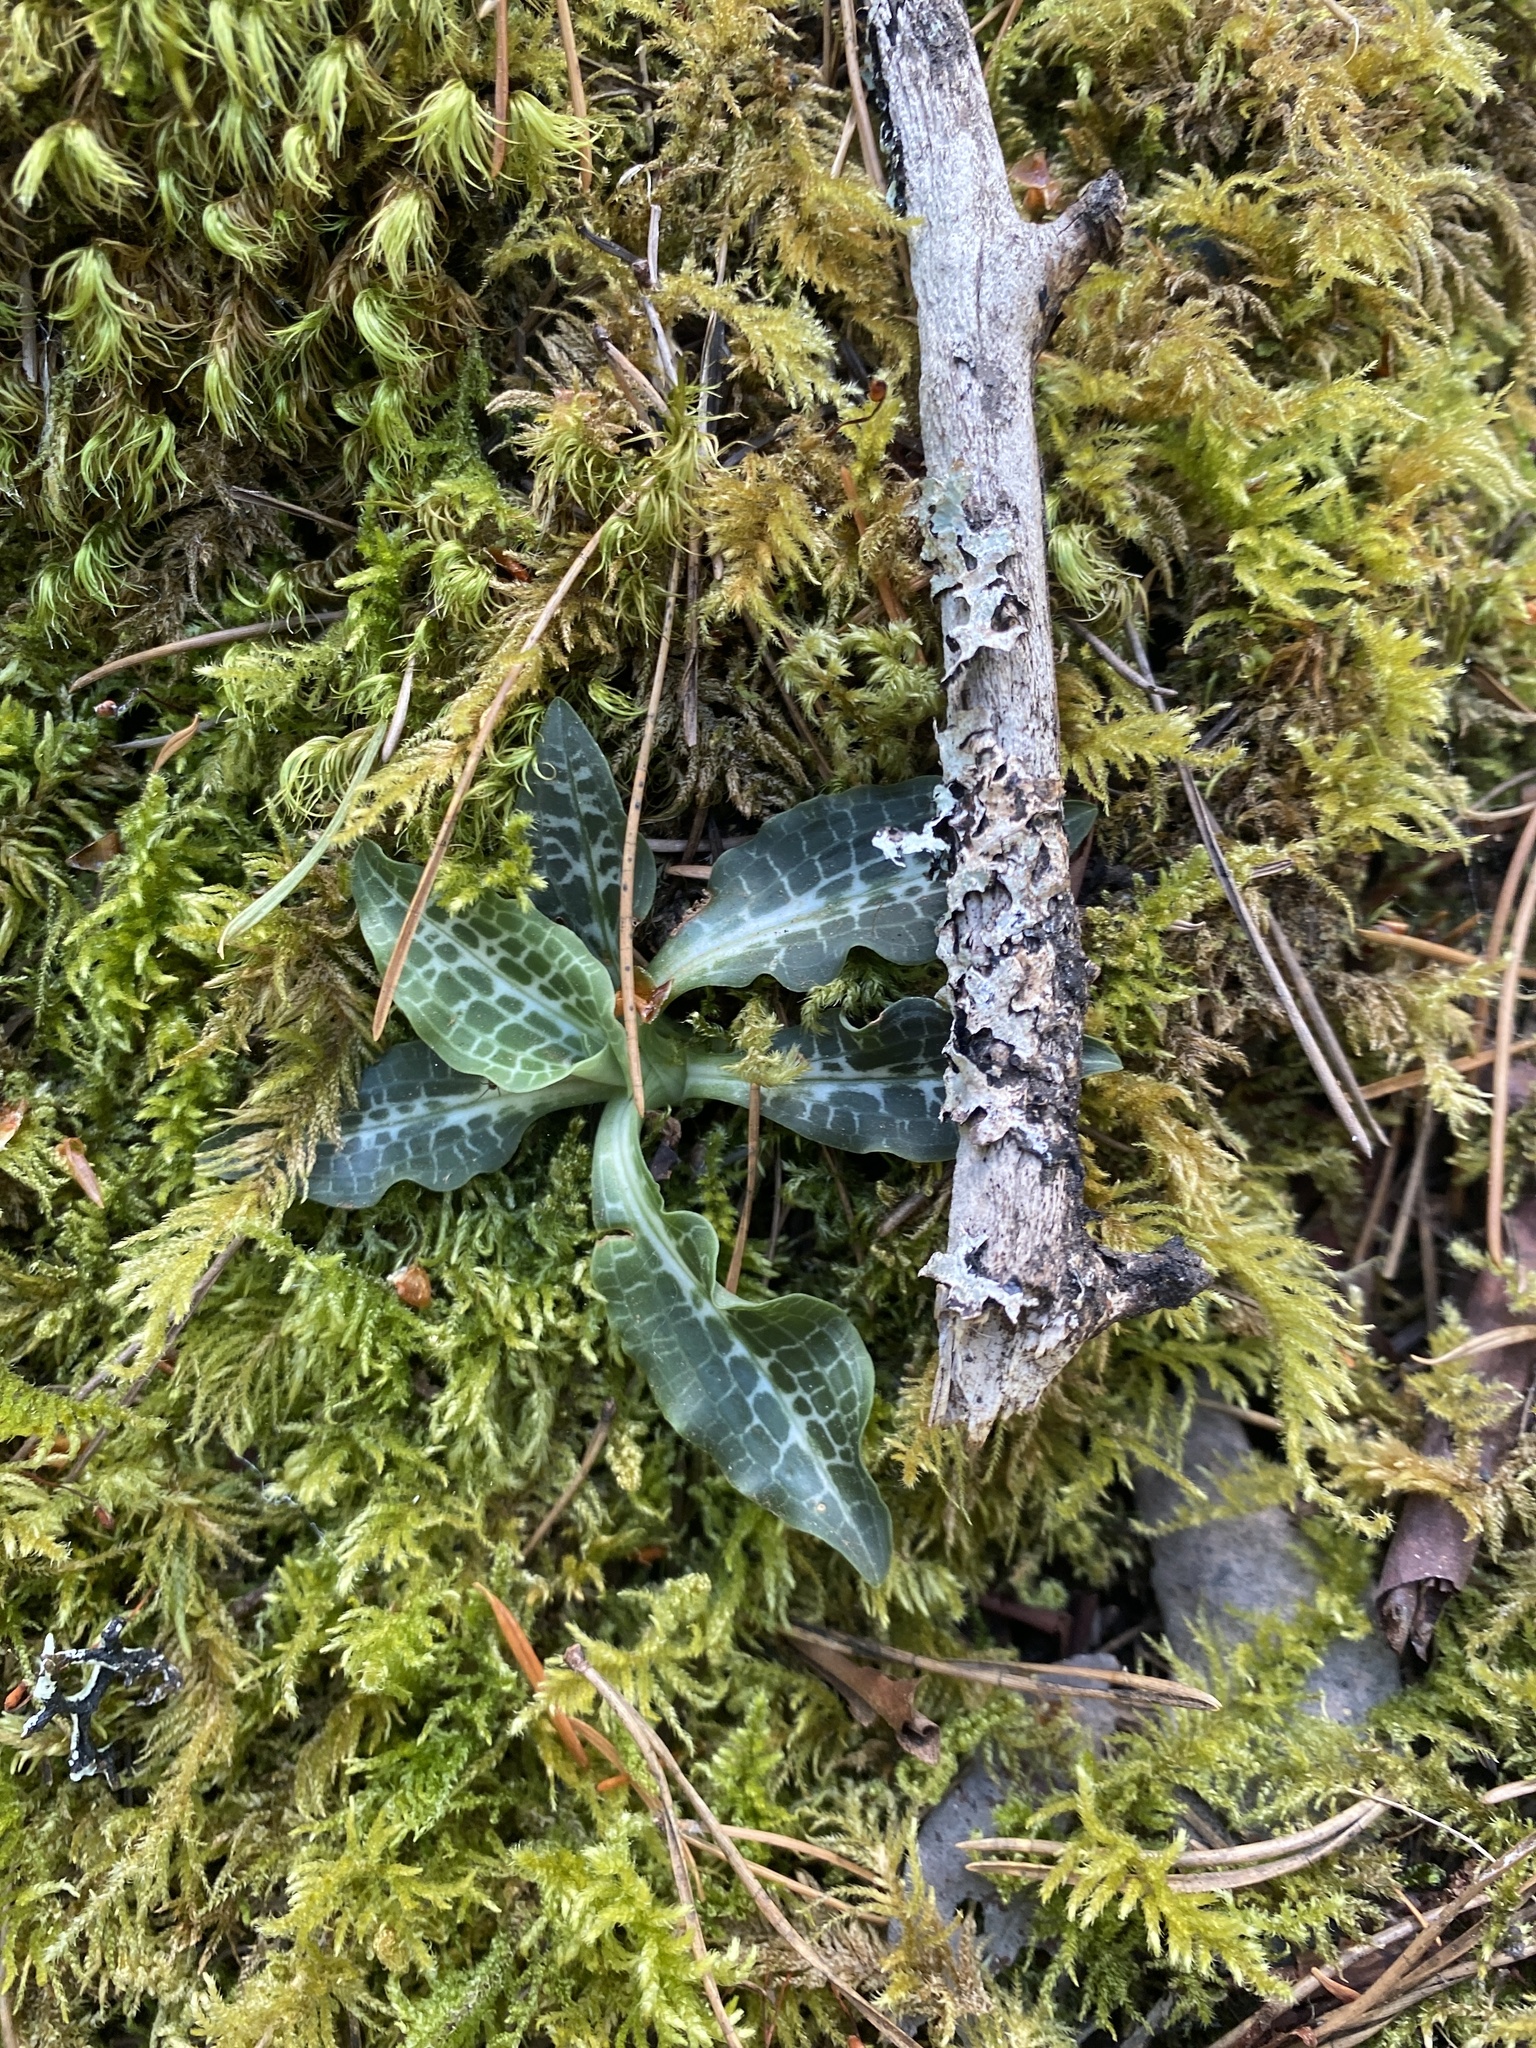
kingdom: Plantae
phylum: Tracheophyta
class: Liliopsida
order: Asparagales
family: Orchidaceae
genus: Goodyera
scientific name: Goodyera oblongifolia
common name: Giant rattlesnake-plantain
